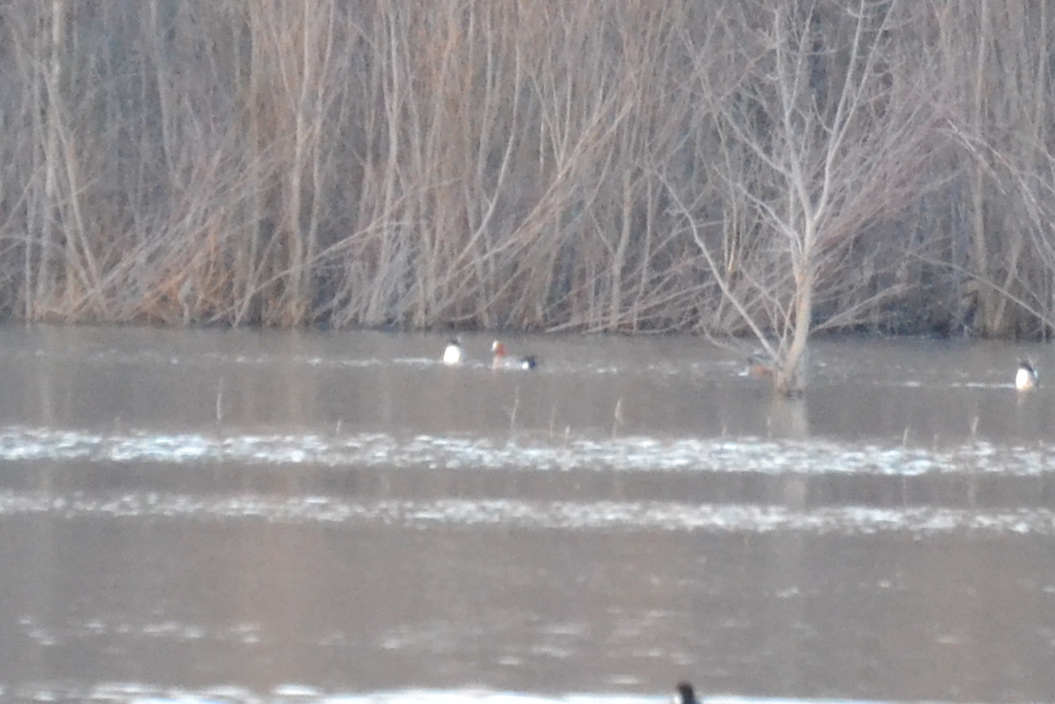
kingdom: Animalia
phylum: Chordata
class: Aves
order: Anseriformes
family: Anatidae
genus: Mareca
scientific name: Mareca penelope
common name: Eurasian wigeon
